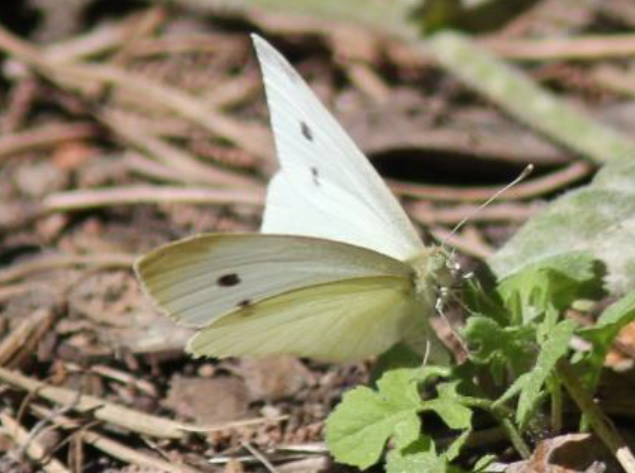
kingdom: Animalia
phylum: Arthropoda
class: Insecta
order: Lepidoptera
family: Pieridae
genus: Pieris
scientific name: Pieris rapae
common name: Small white
